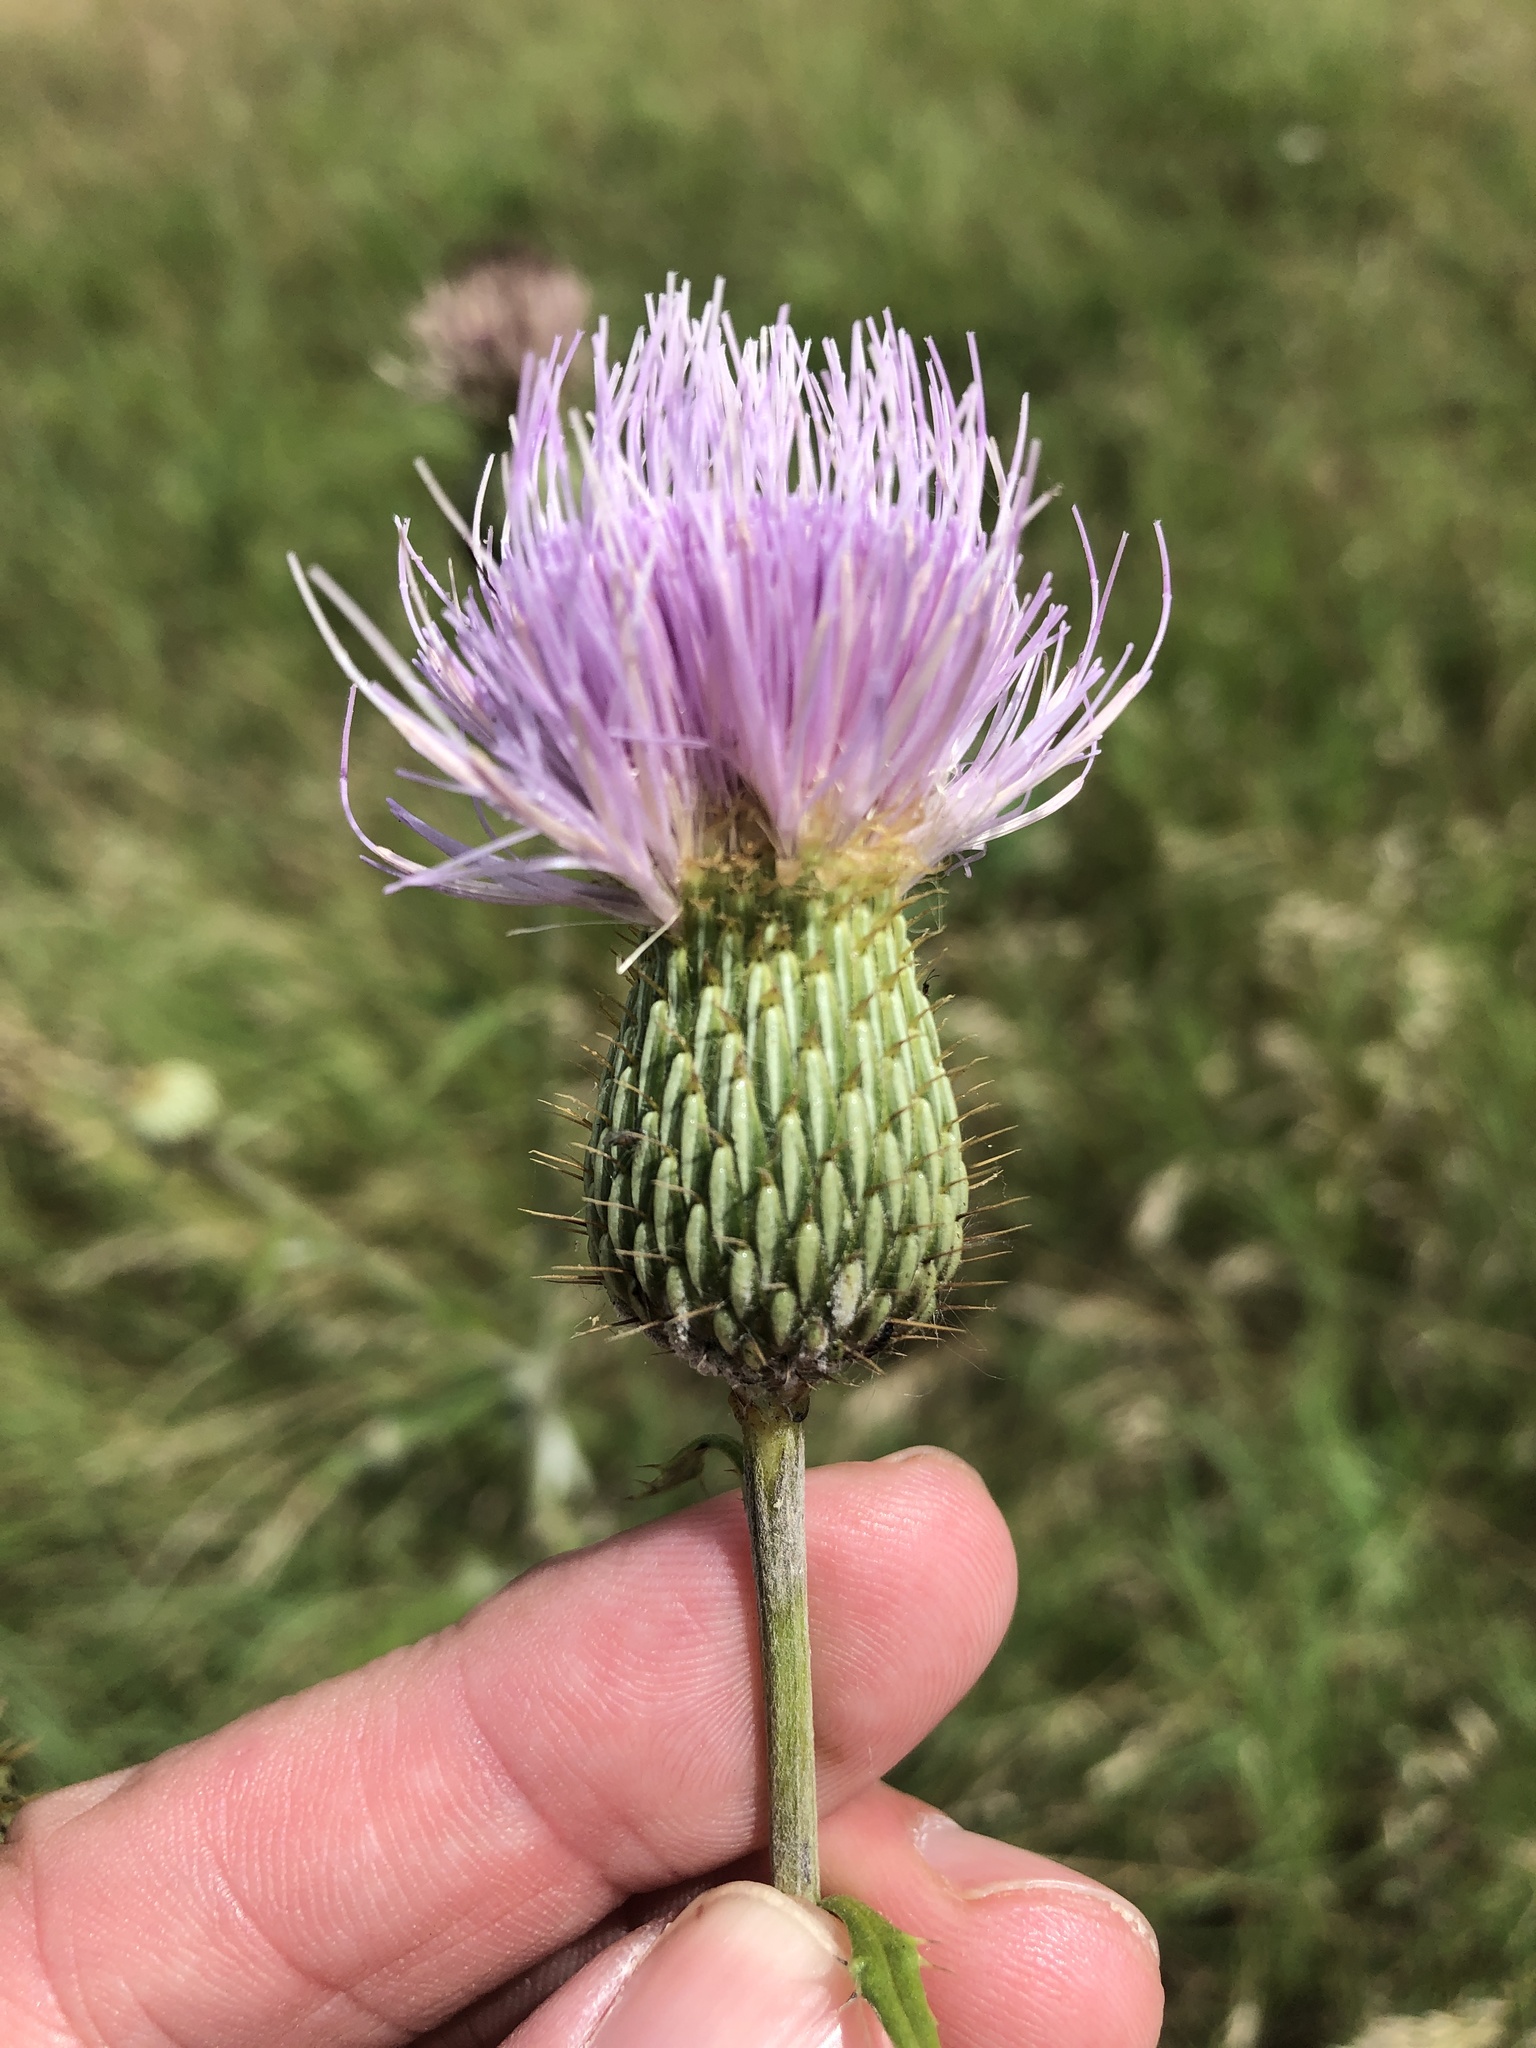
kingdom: Plantae
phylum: Tracheophyta
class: Magnoliopsida
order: Asterales
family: Asteraceae
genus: Cirsium
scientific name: Cirsium texanum
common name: Texas purple thistle
